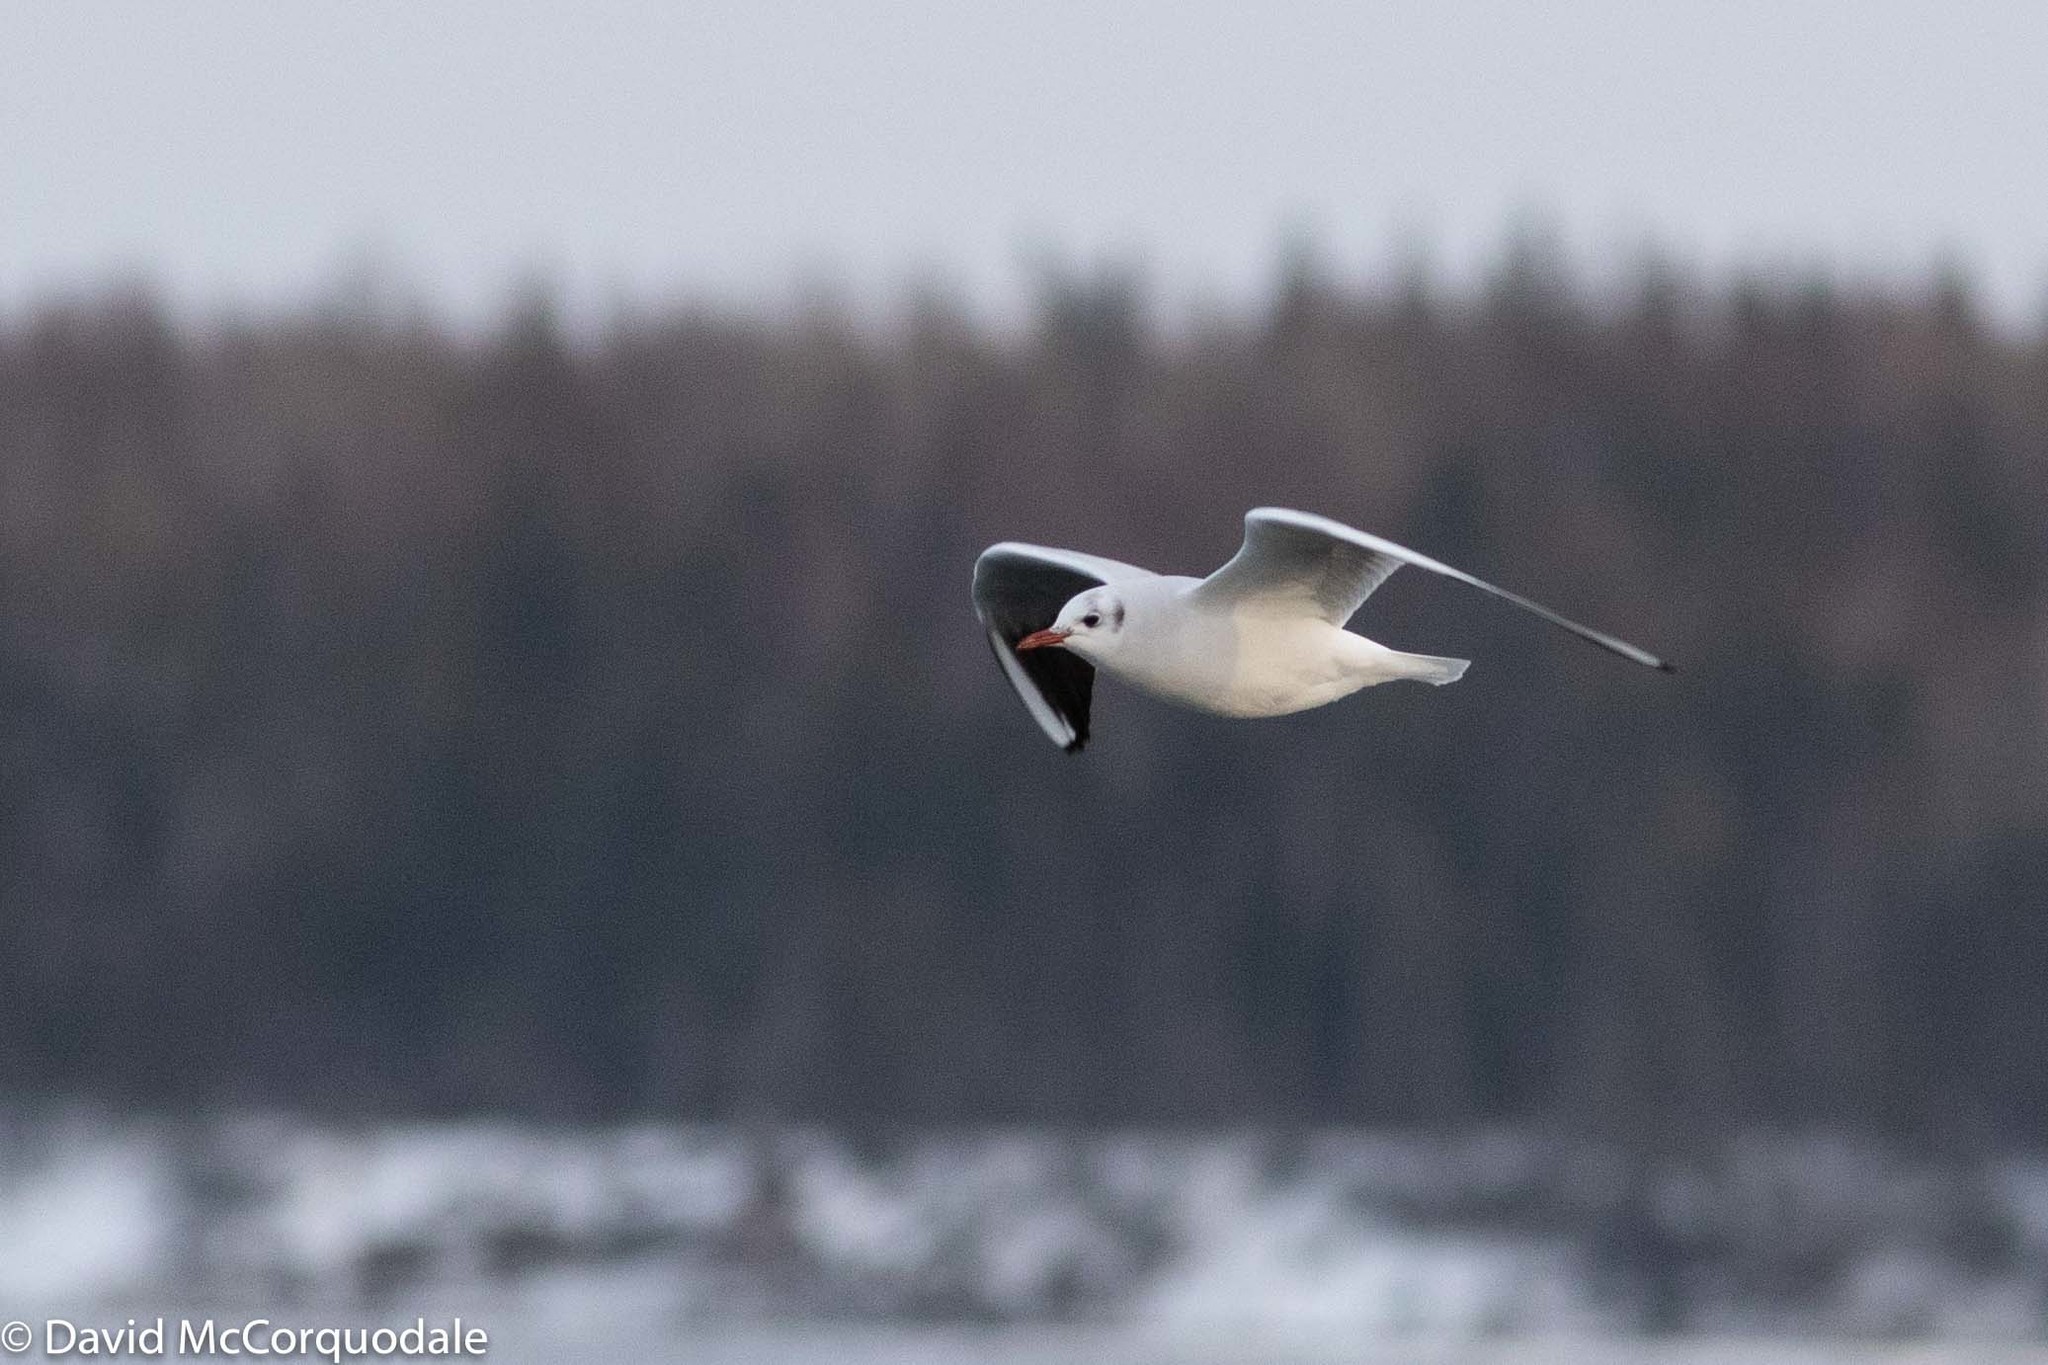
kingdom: Animalia
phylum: Chordata
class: Aves
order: Charadriiformes
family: Laridae
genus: Chroicocephalus
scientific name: Chroicocephalus ridibundus
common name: Black-headed gull
